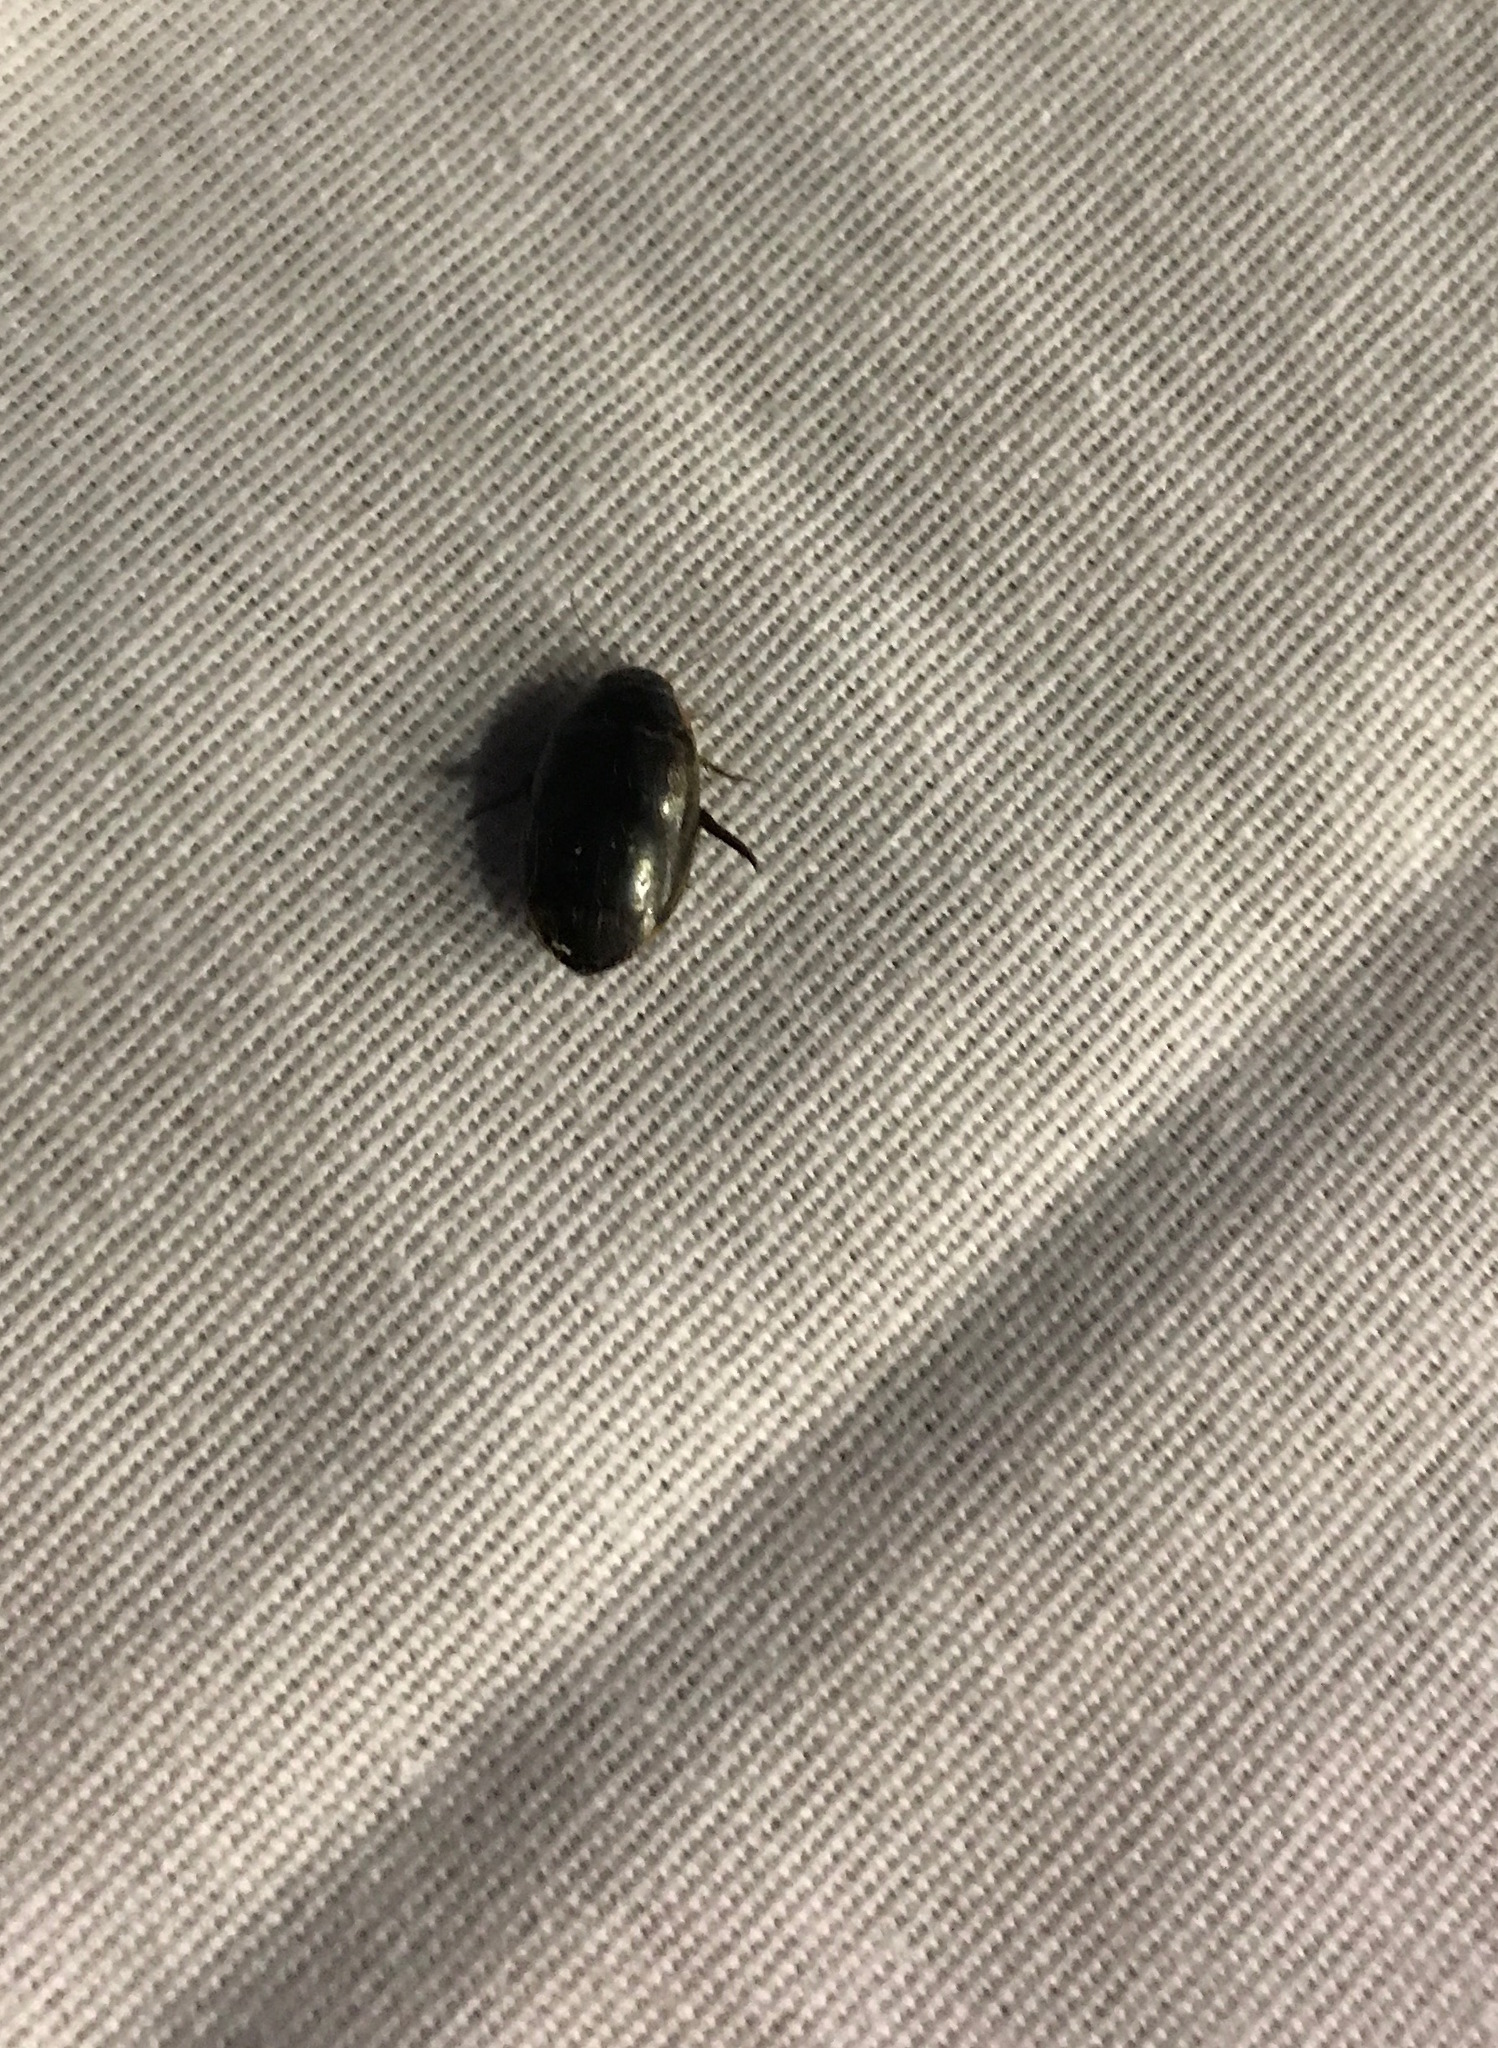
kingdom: Animalia
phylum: Arthropoda
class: Insecta
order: Coleoptera
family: Dytiscidae
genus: Thermonectus
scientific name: Thermonectus basillaris
